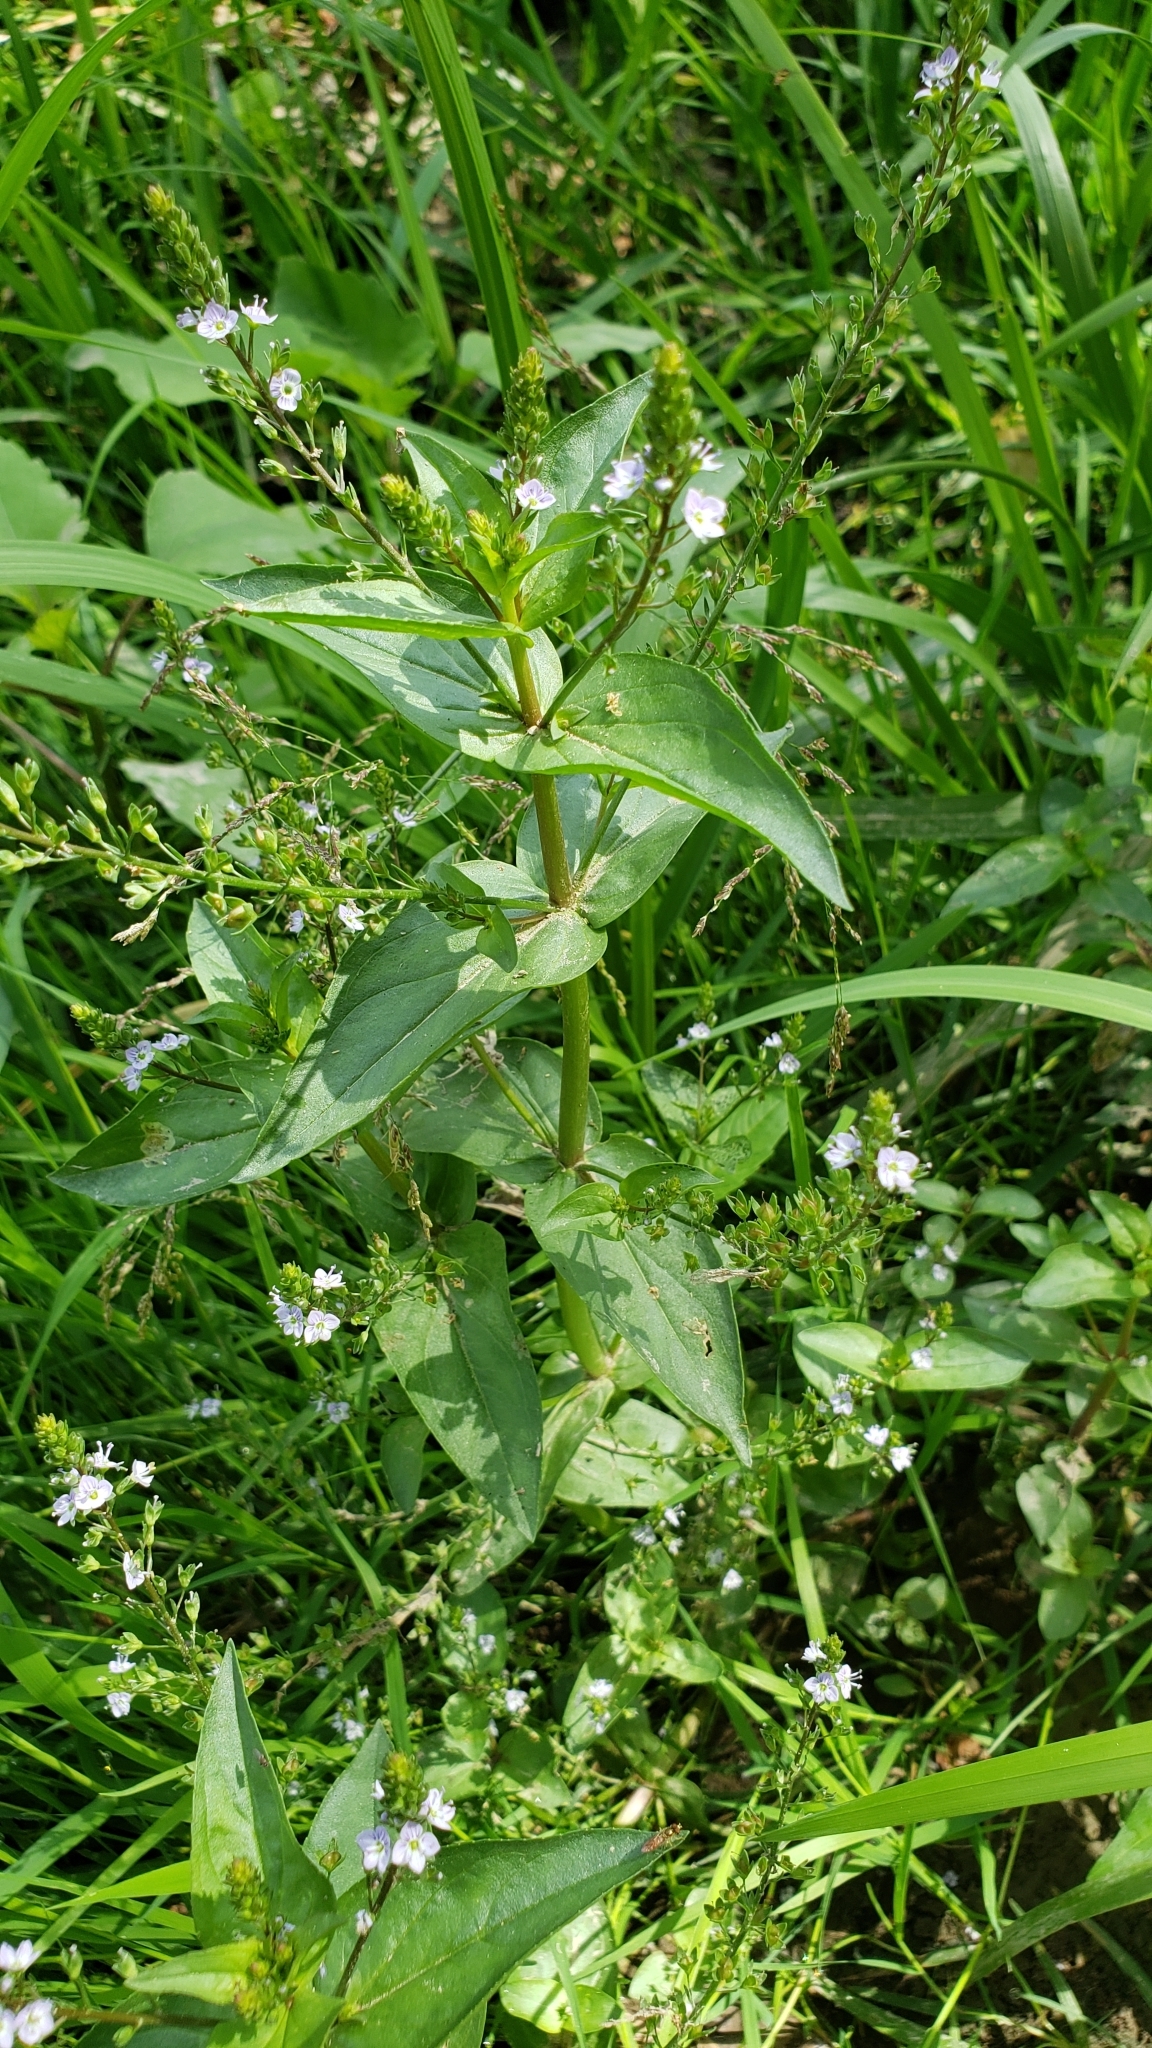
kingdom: Plantae
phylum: Tracheophyta
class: Magnoliopsida
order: Lamiales
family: Plantaginaceae
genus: Veronica
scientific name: Veronica anagallis-aquatica
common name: Water speedwell
